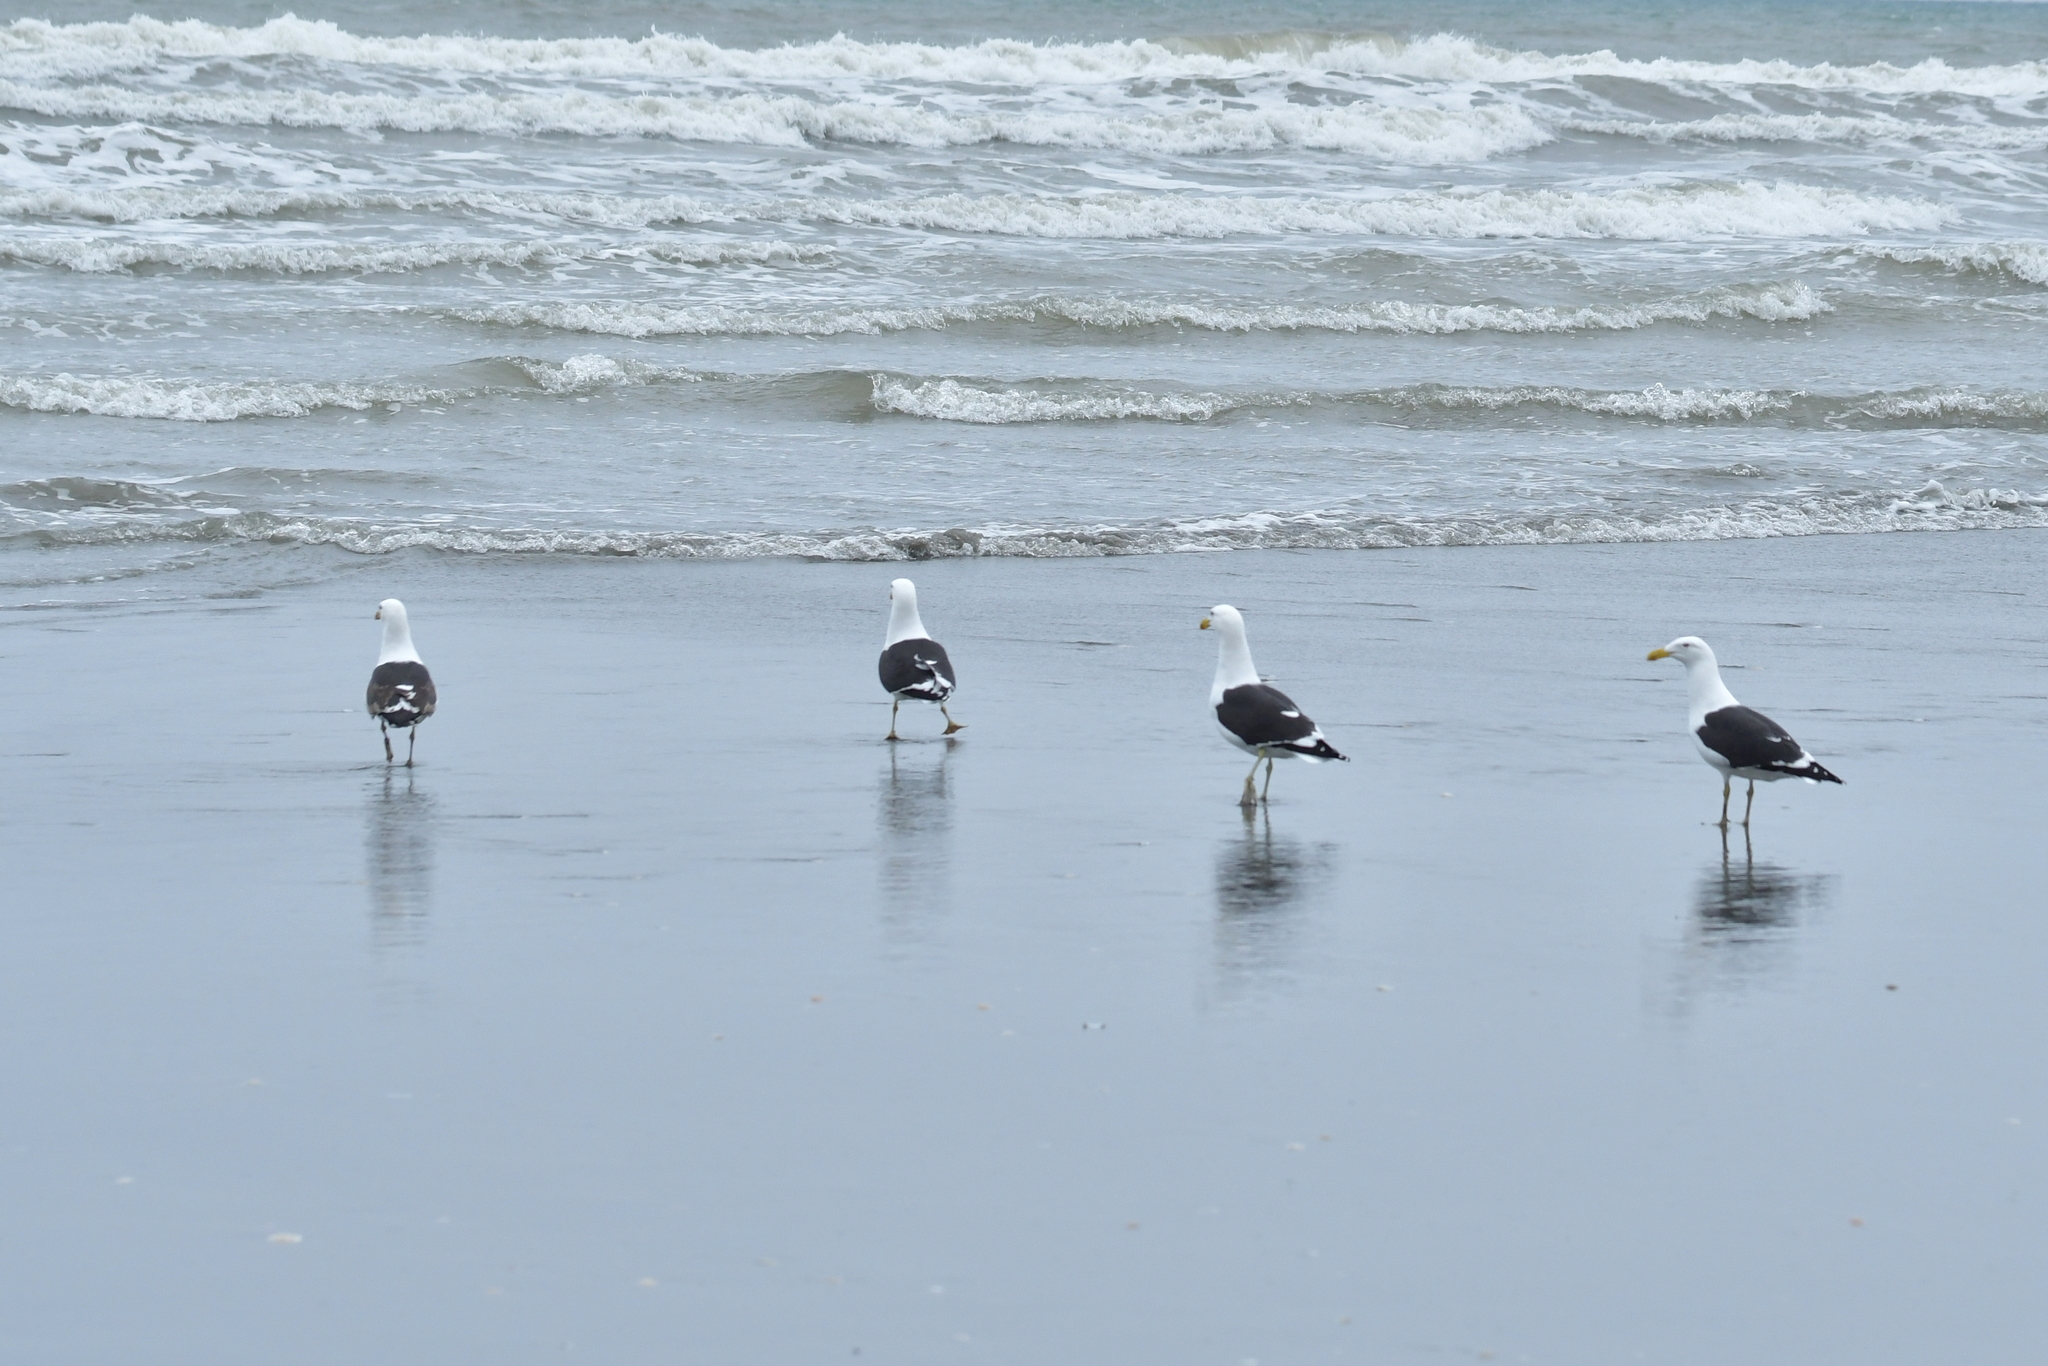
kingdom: Animalia
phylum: Chordata
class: Aves
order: Charadriiformes
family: Laridae
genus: Larus
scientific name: Larus dominicanus
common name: Kelp gull
